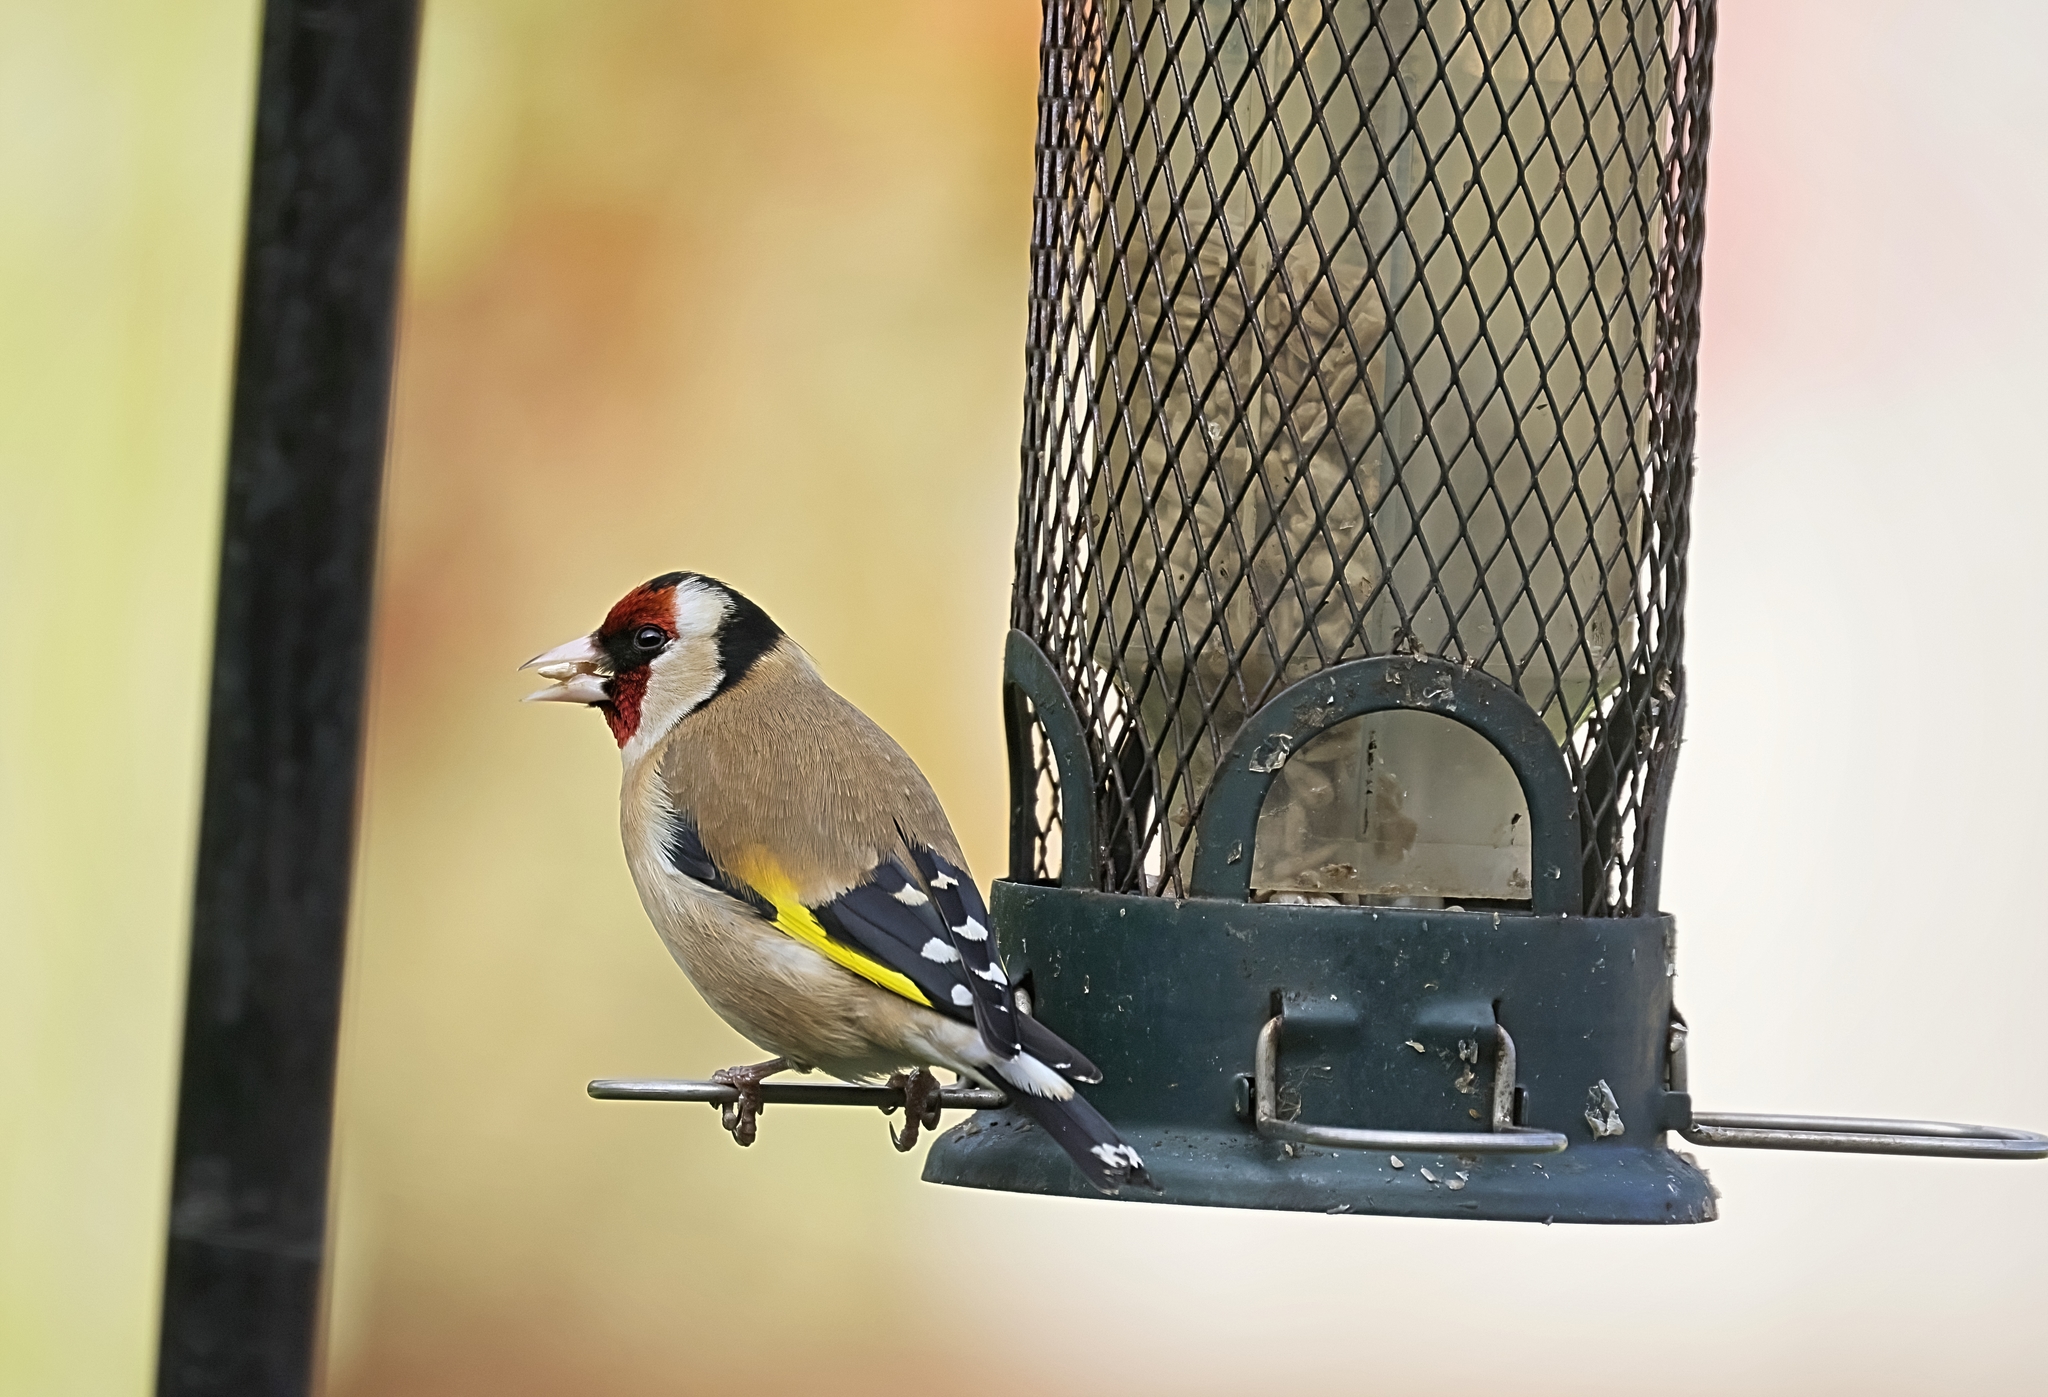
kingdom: Animalia
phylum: Chordata
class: Aves
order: Passeriformes
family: Fringillidae
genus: Carduelis
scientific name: Carduelis carduelis
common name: European goldfinch
